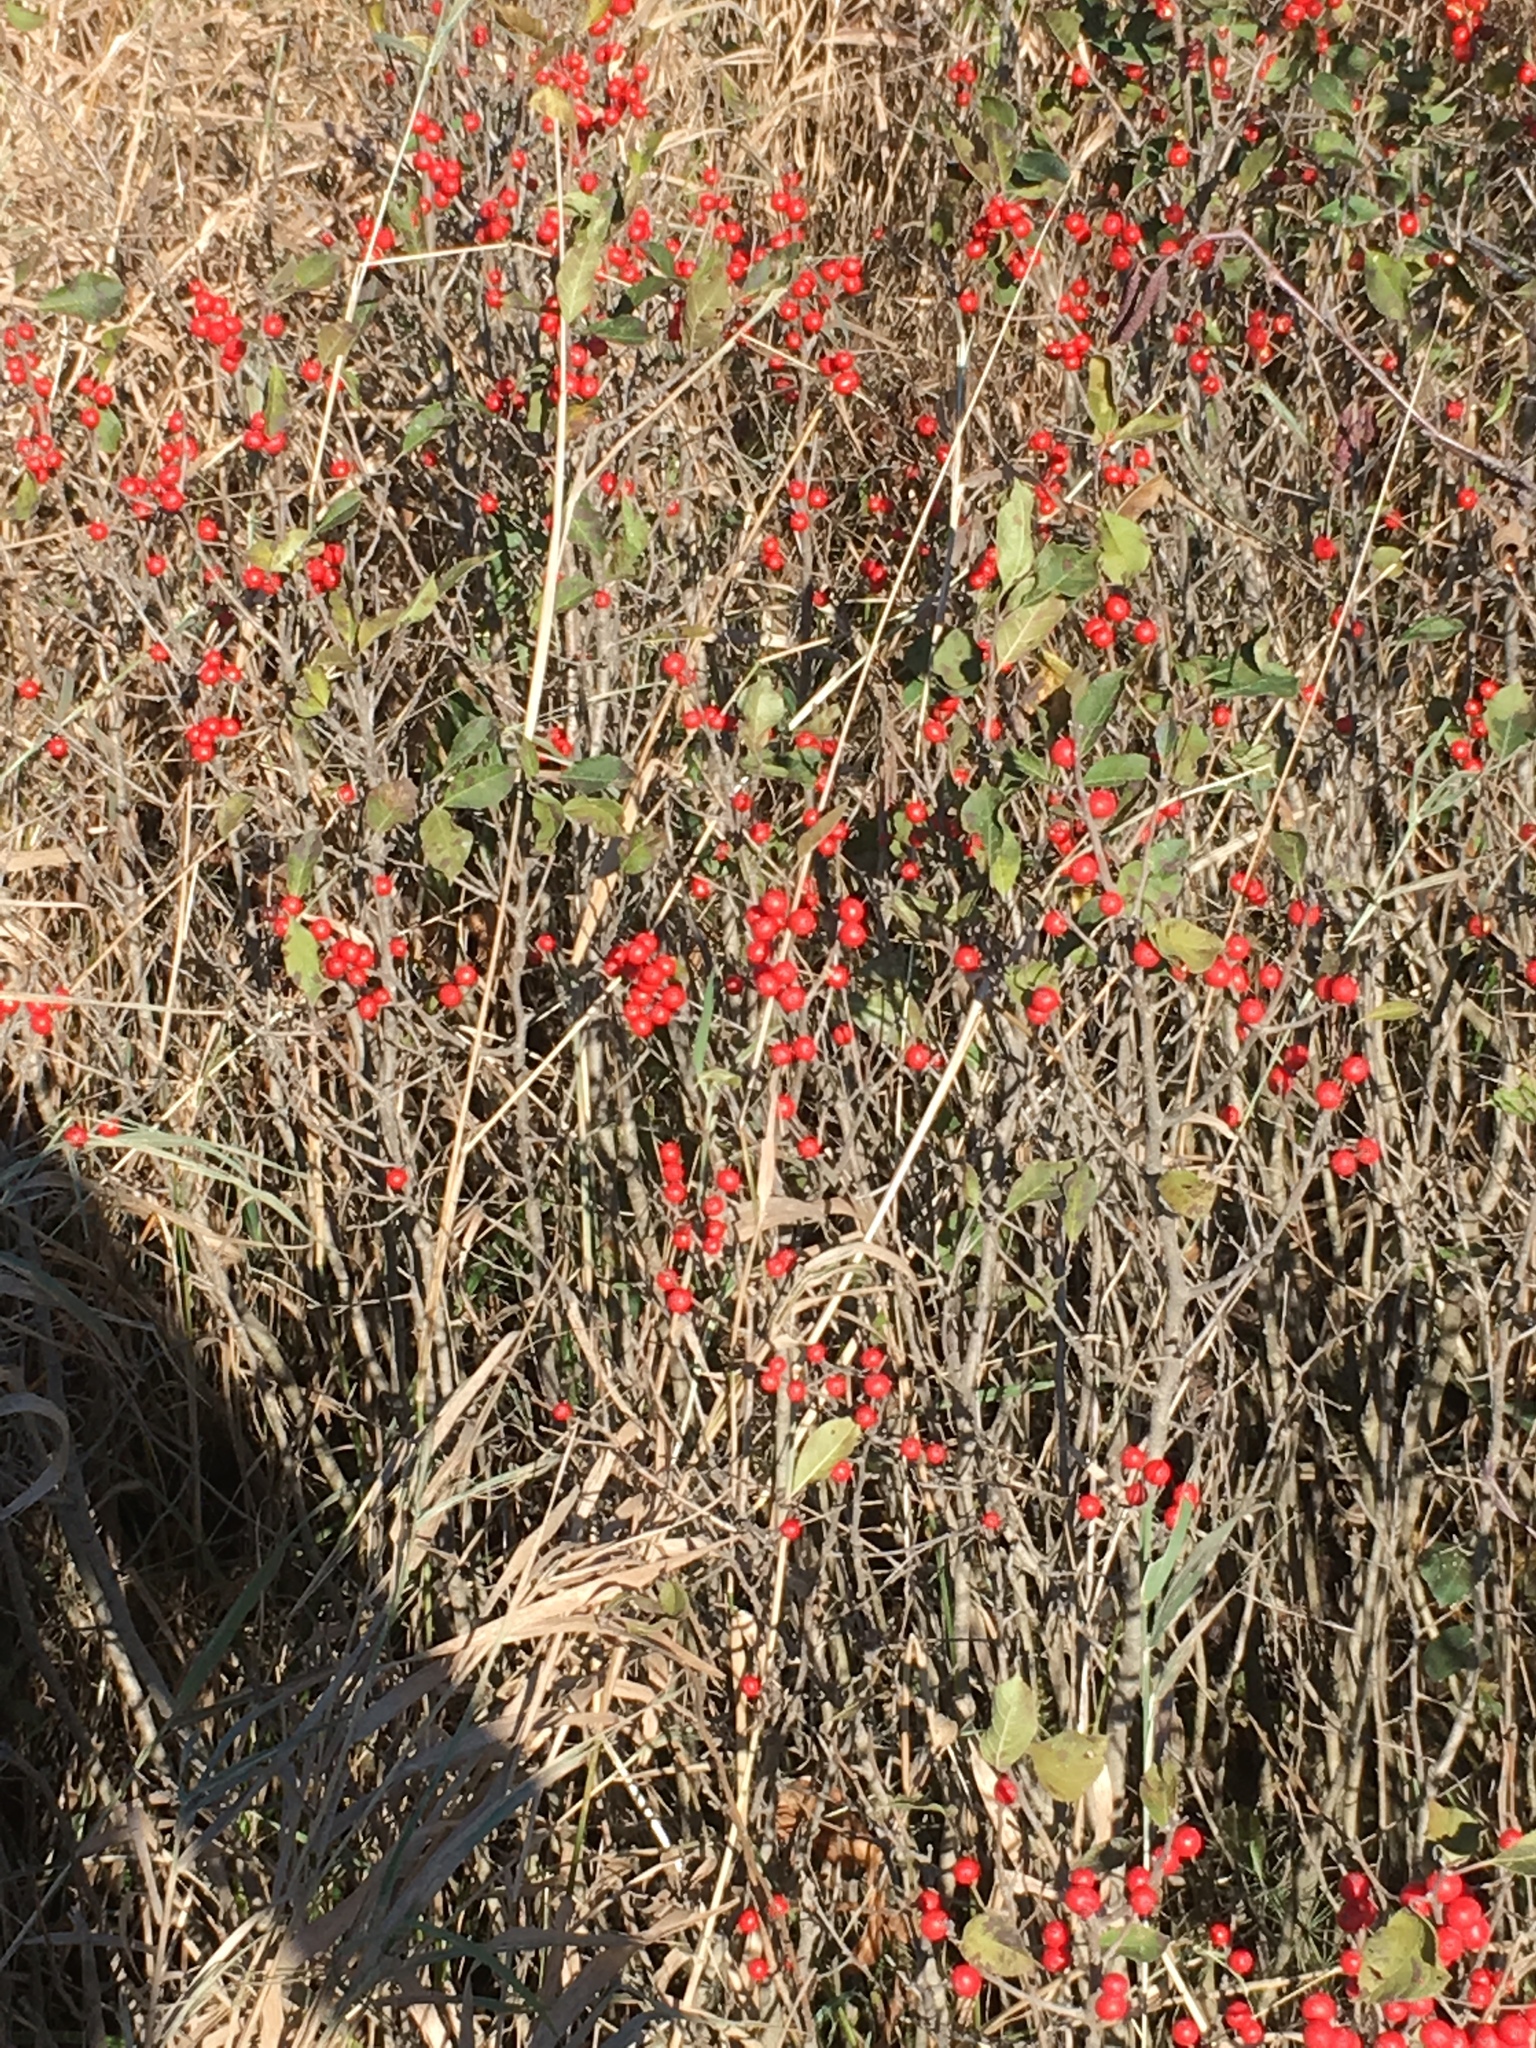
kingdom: Plantae
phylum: Tracheophyta
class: Magnoliopsida
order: Aquifoliales
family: Aquifoliaceae
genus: Ilex
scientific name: Ilex verticillata
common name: Virginia winterberry
